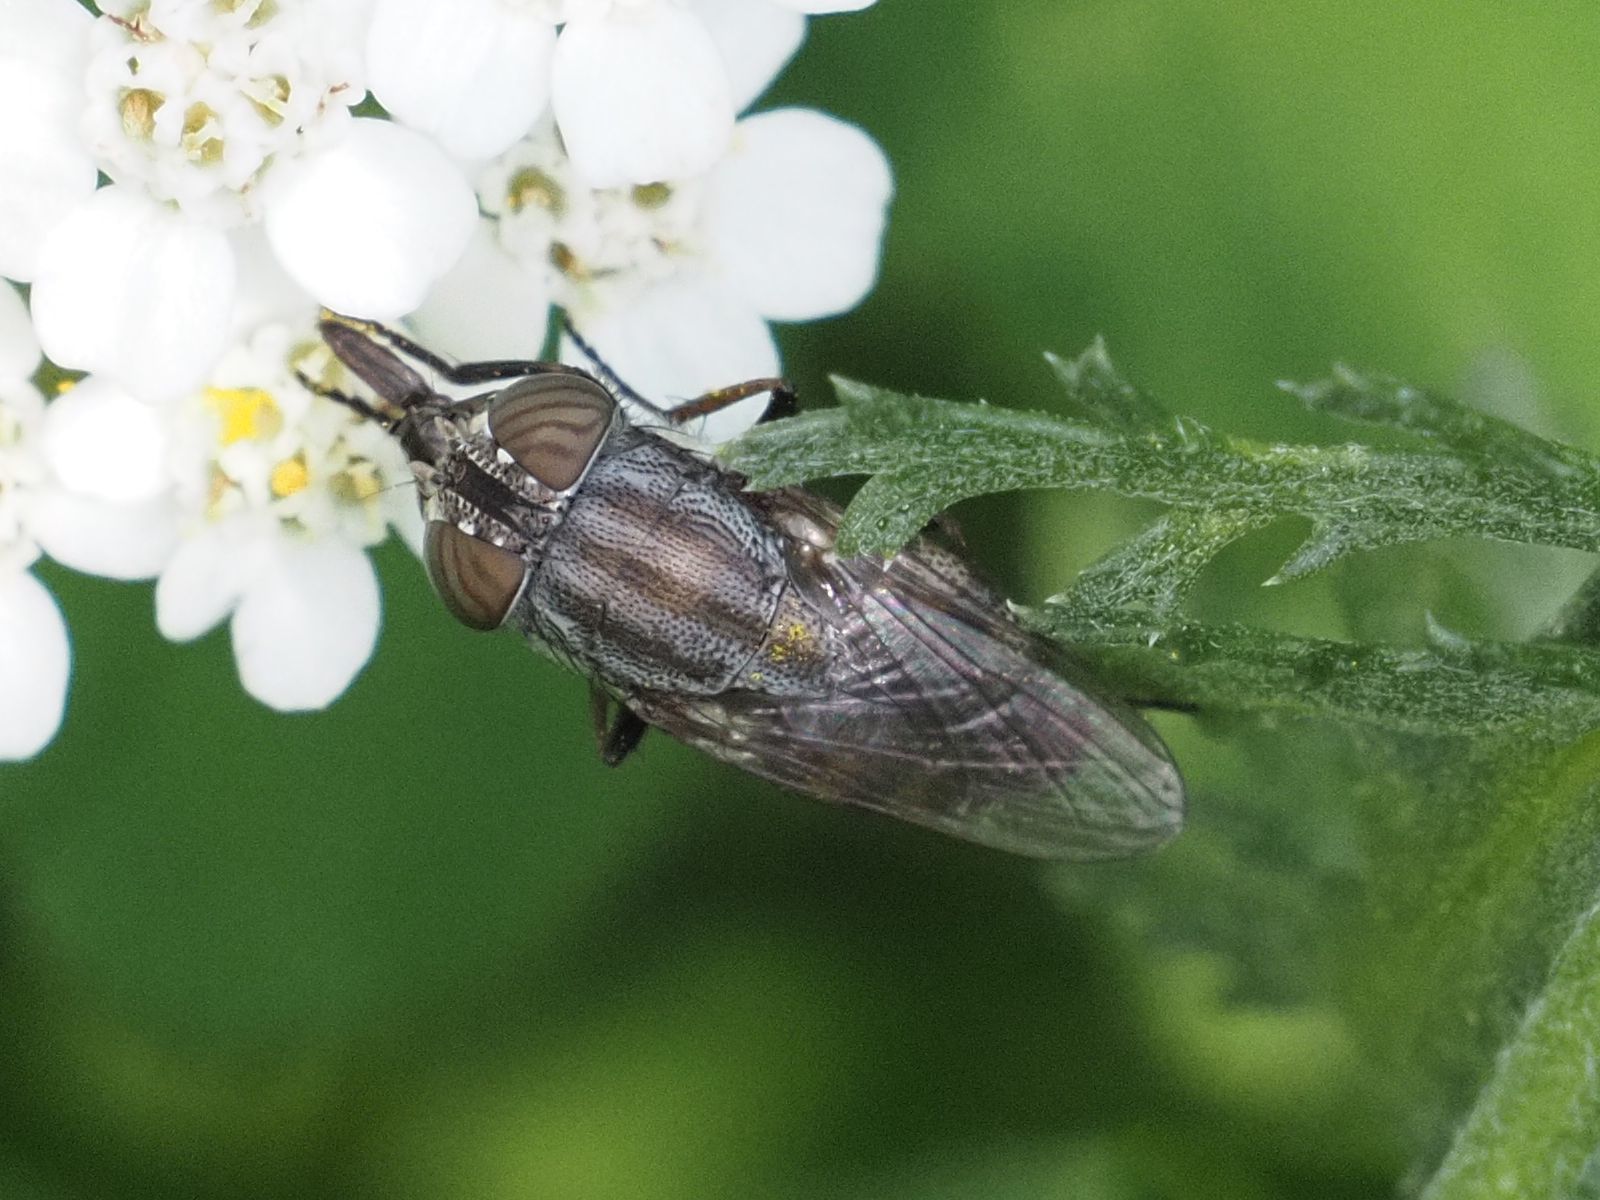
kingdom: Animalia
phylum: Arthropoda
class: Insecta
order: Diptera
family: Calliphoridae
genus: Stomorhina
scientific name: Stomorhina lunata
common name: Locust blowfly
